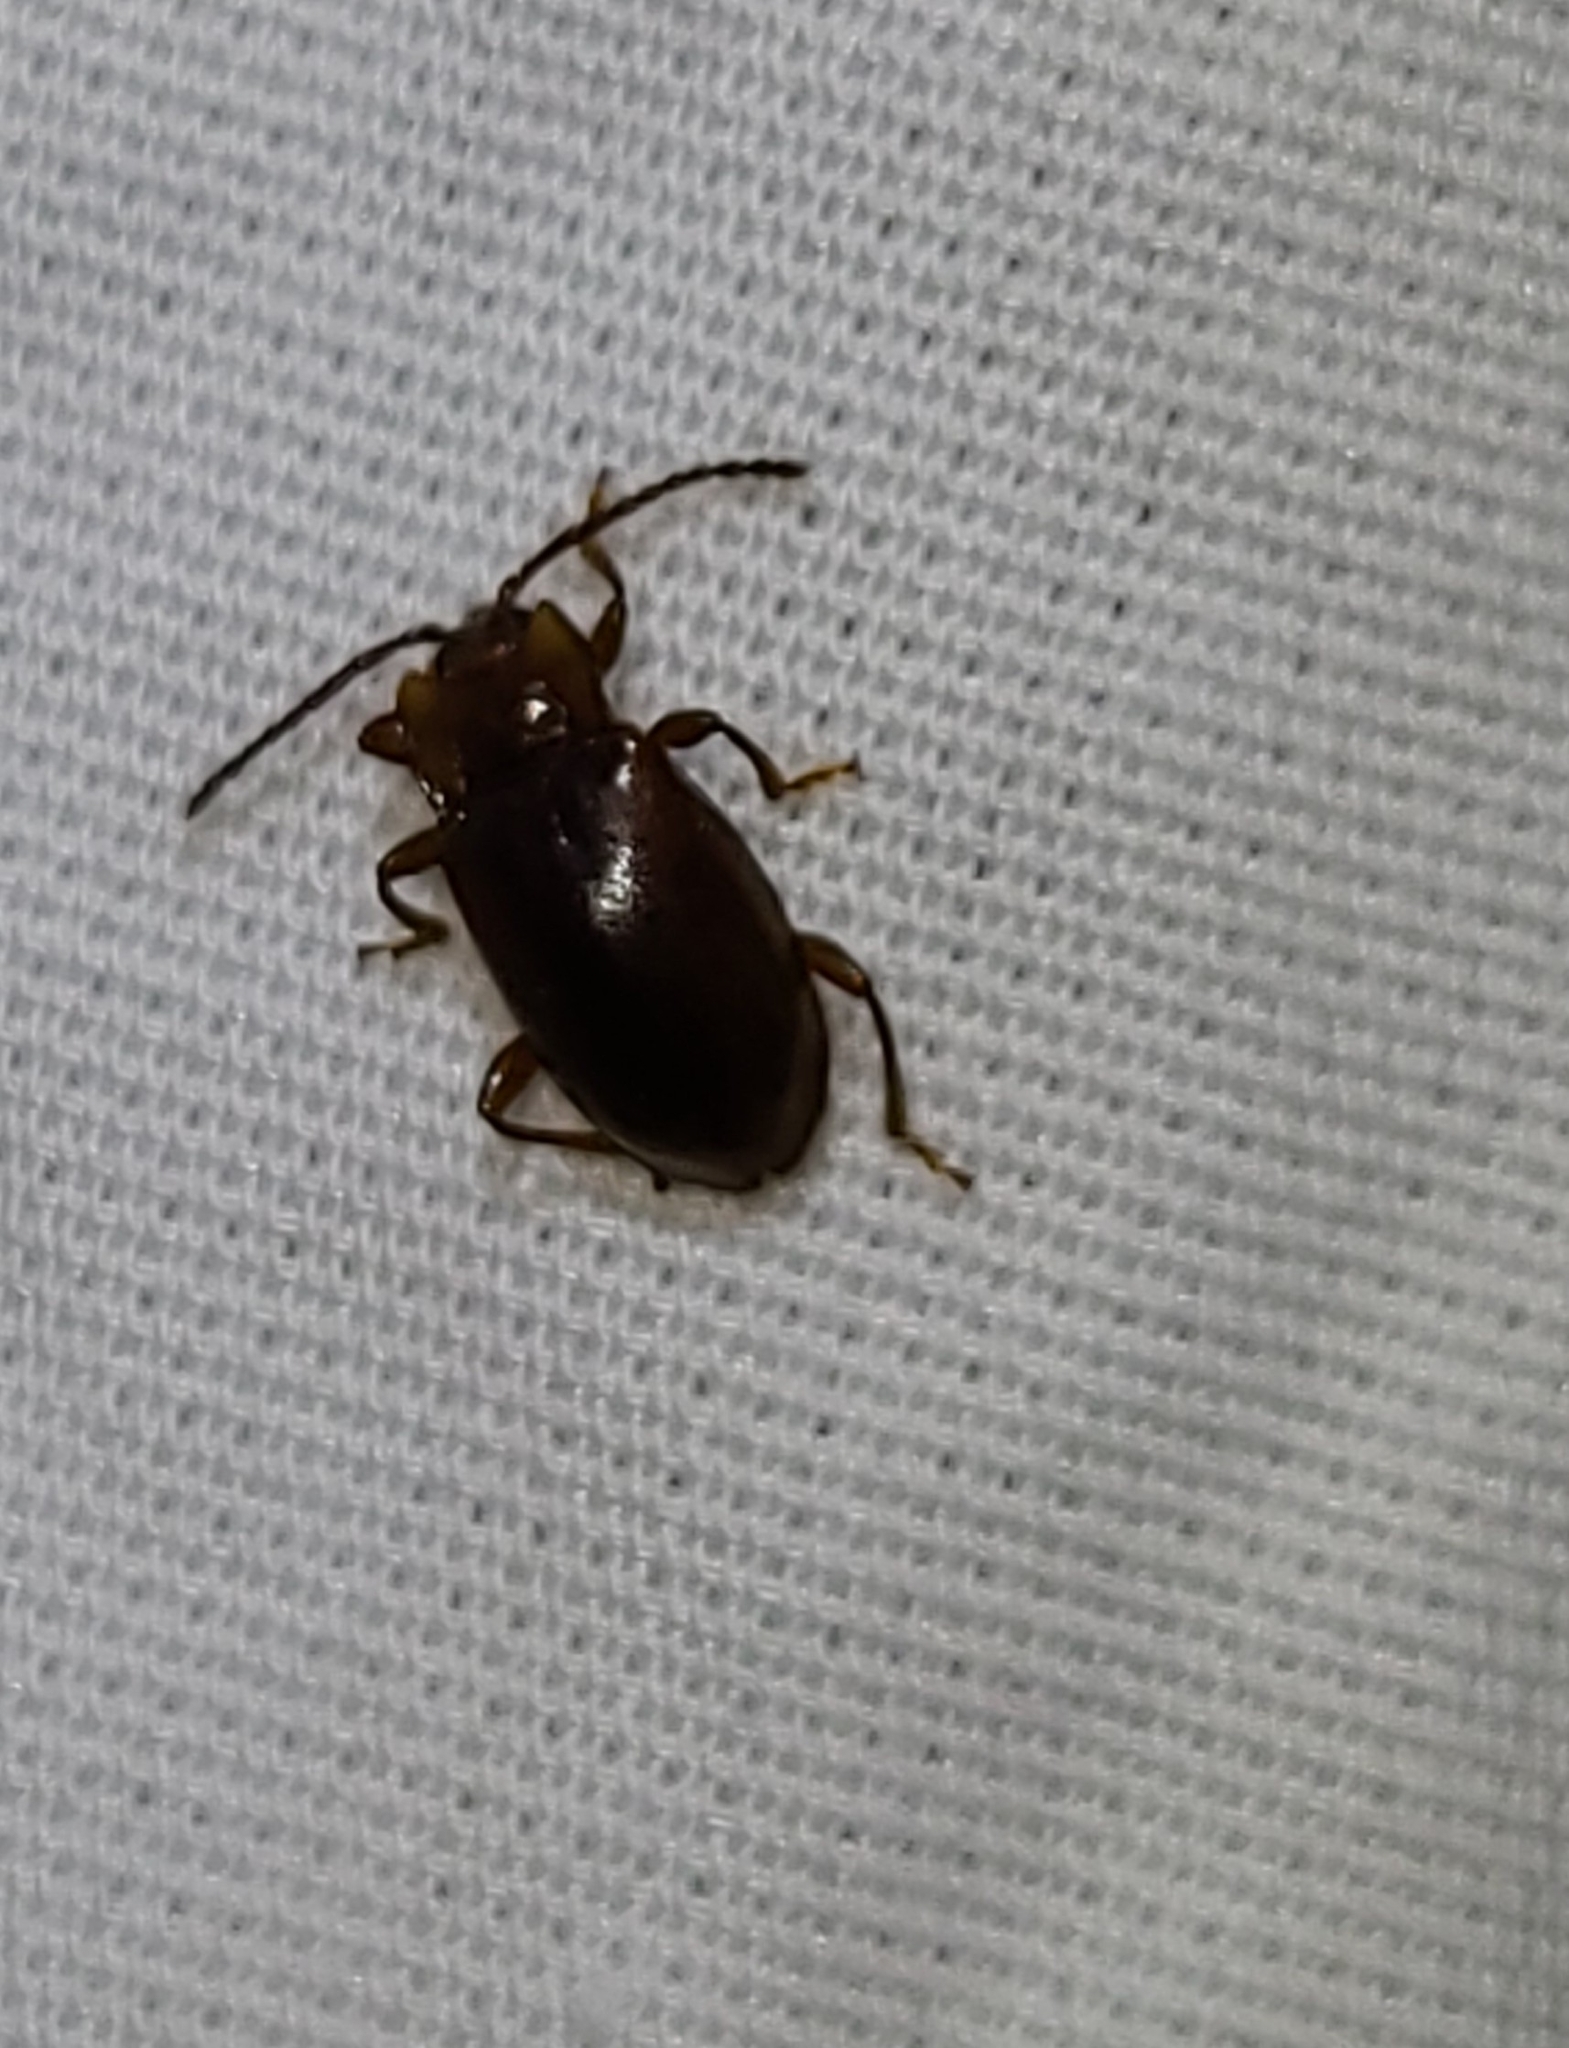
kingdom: Animalia
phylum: Arthropoda
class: Insecta
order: Coleoptera
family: Endomychidae
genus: Aphorista
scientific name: Aphorista morosa
